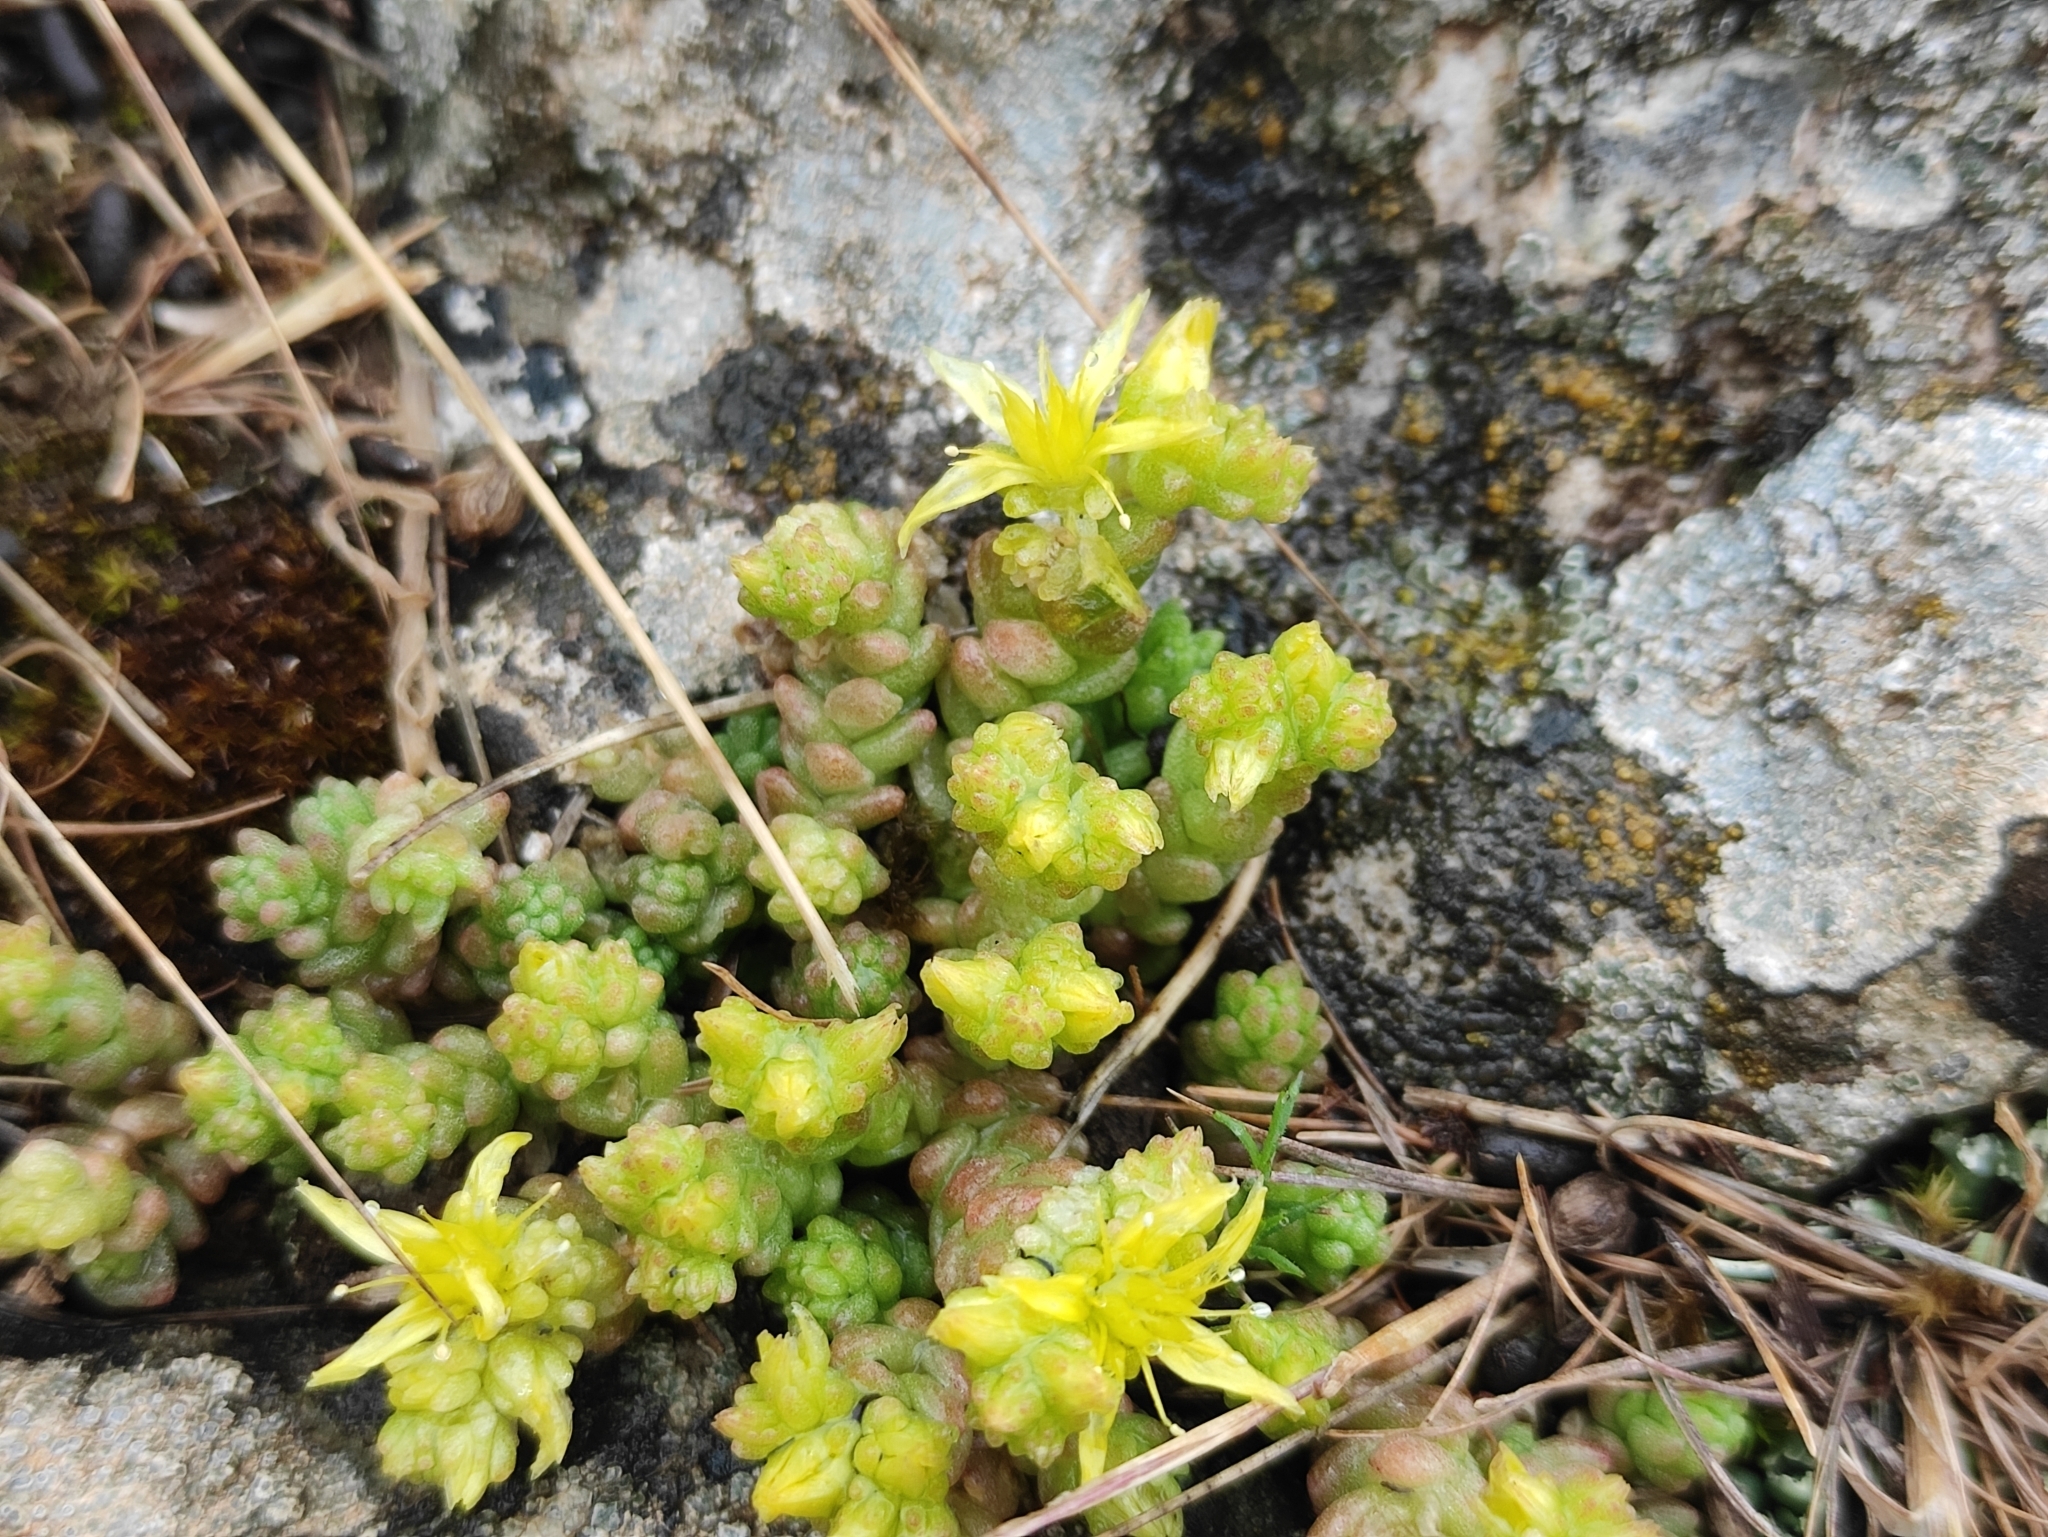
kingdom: Plantae
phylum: Tracheophyta
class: Magnoliopsida
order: Saxifragales
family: Crassulaceae
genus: Sedum
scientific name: Sedum acre
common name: Biting stonecrop
